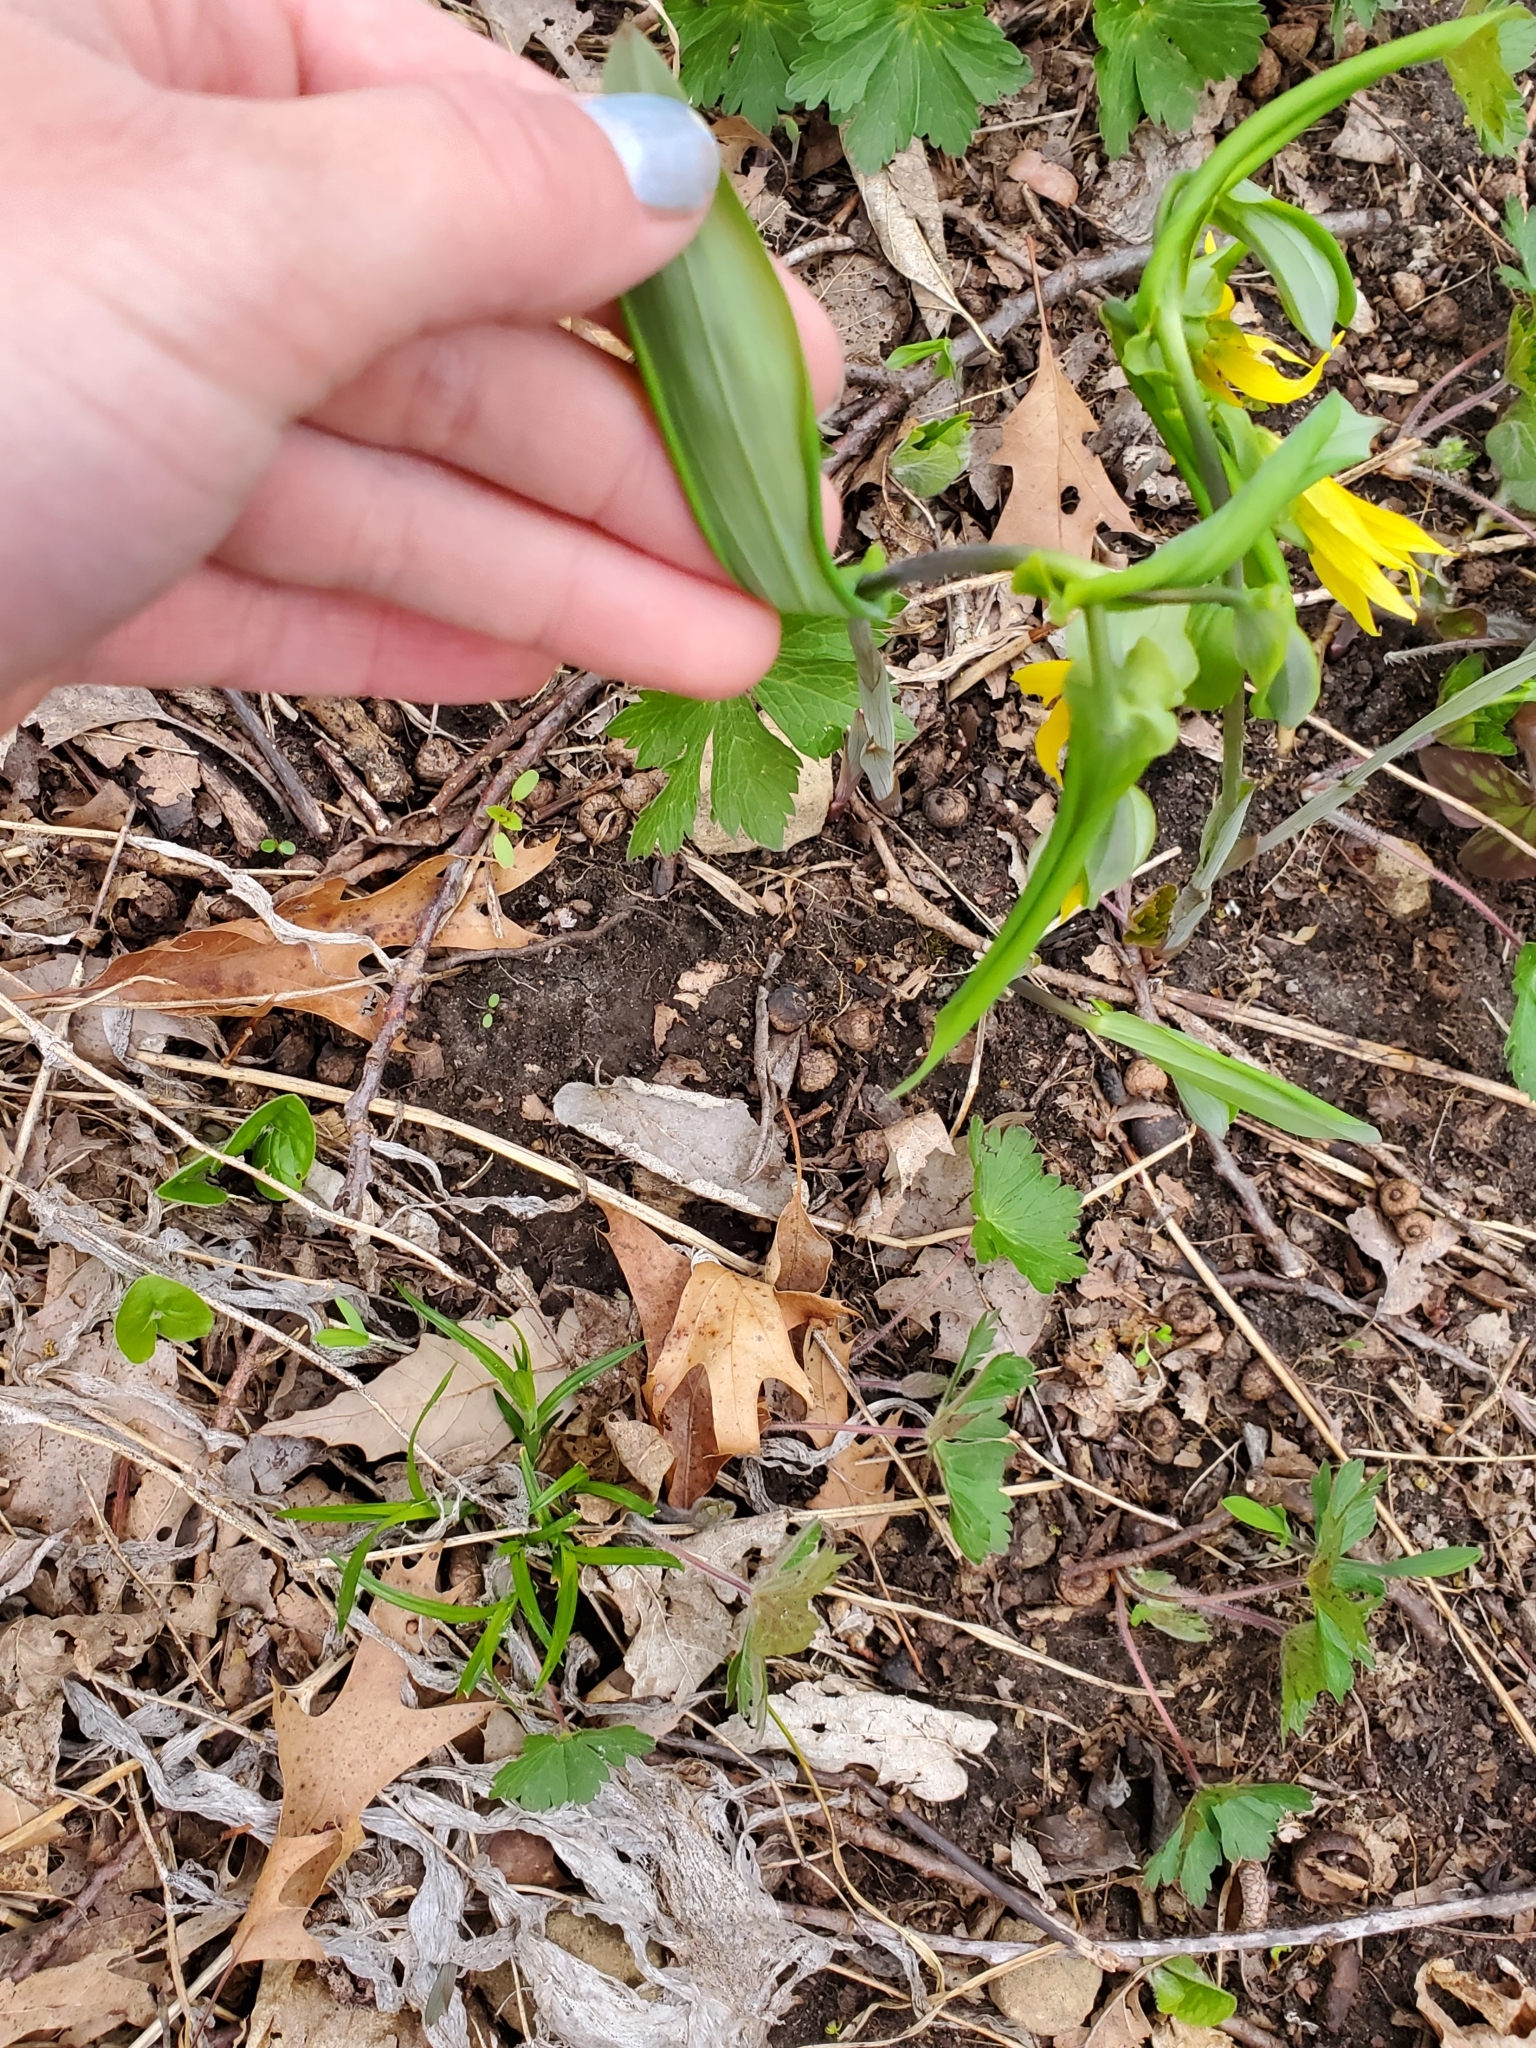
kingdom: Plantae
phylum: Tracheophyta
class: Liliopsida
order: Liliales
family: Colchicaceae
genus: Uvularia
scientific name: Uvularia grandiflora
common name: Bellwort
